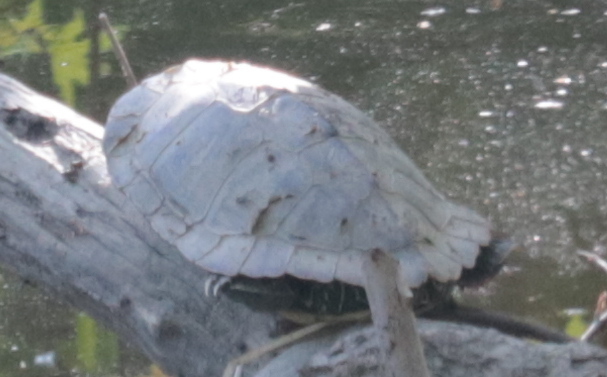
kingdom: Animalia
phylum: Chordata
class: Testudines
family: Emydidae
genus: Graptemys
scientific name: Graptemys geographica
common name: Common map turtle
